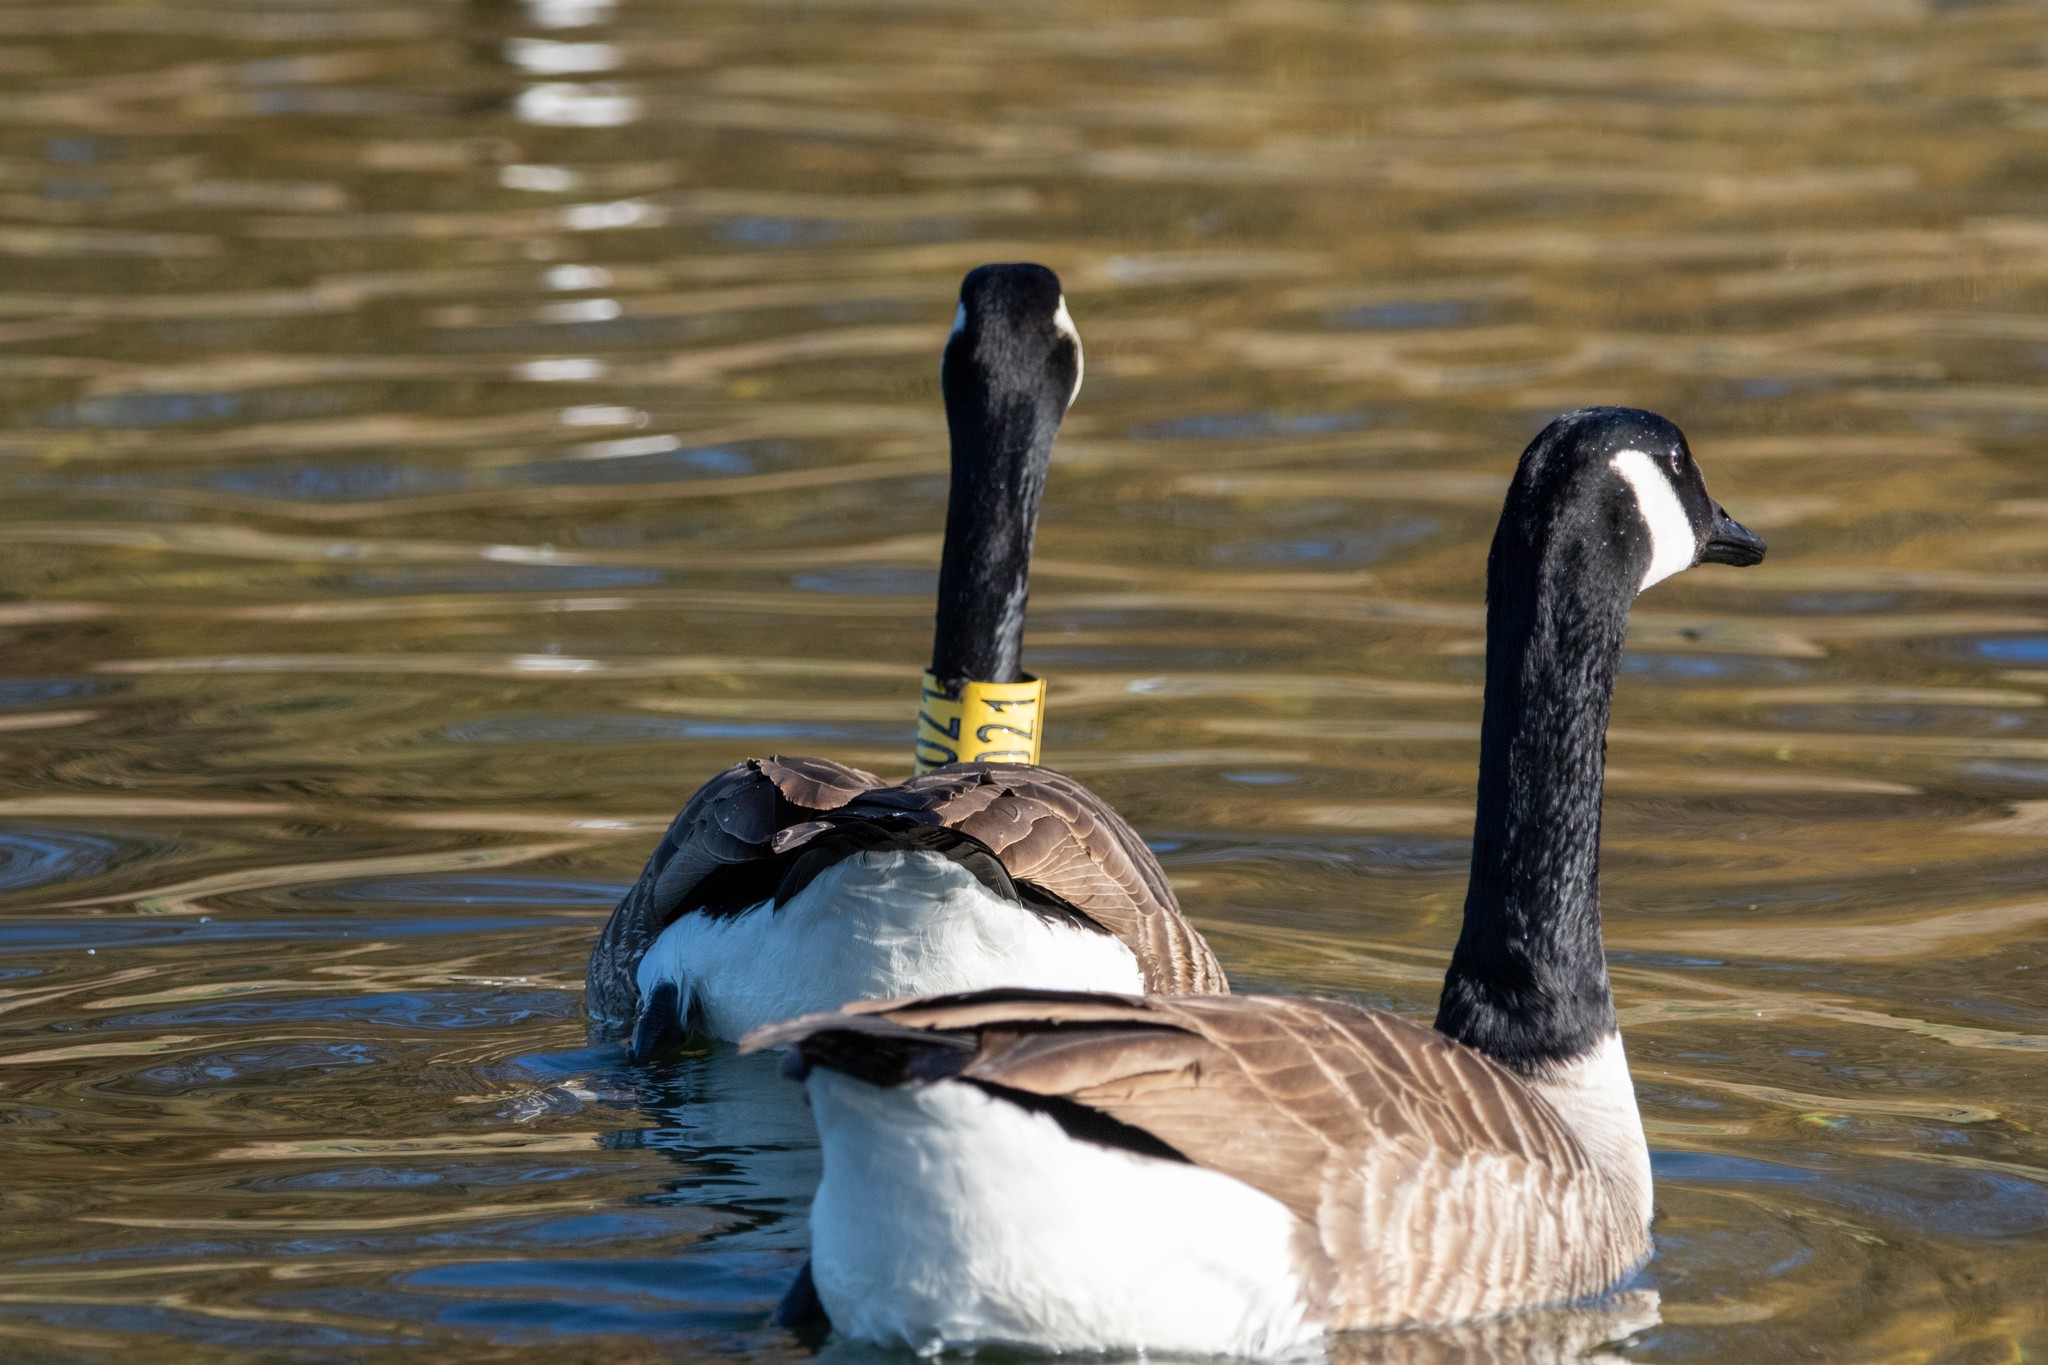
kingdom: Animalia
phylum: Chordata
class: Aves
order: Anseriformes
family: Anatidae
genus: Branta
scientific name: Branta canadensis
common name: Canada goose
